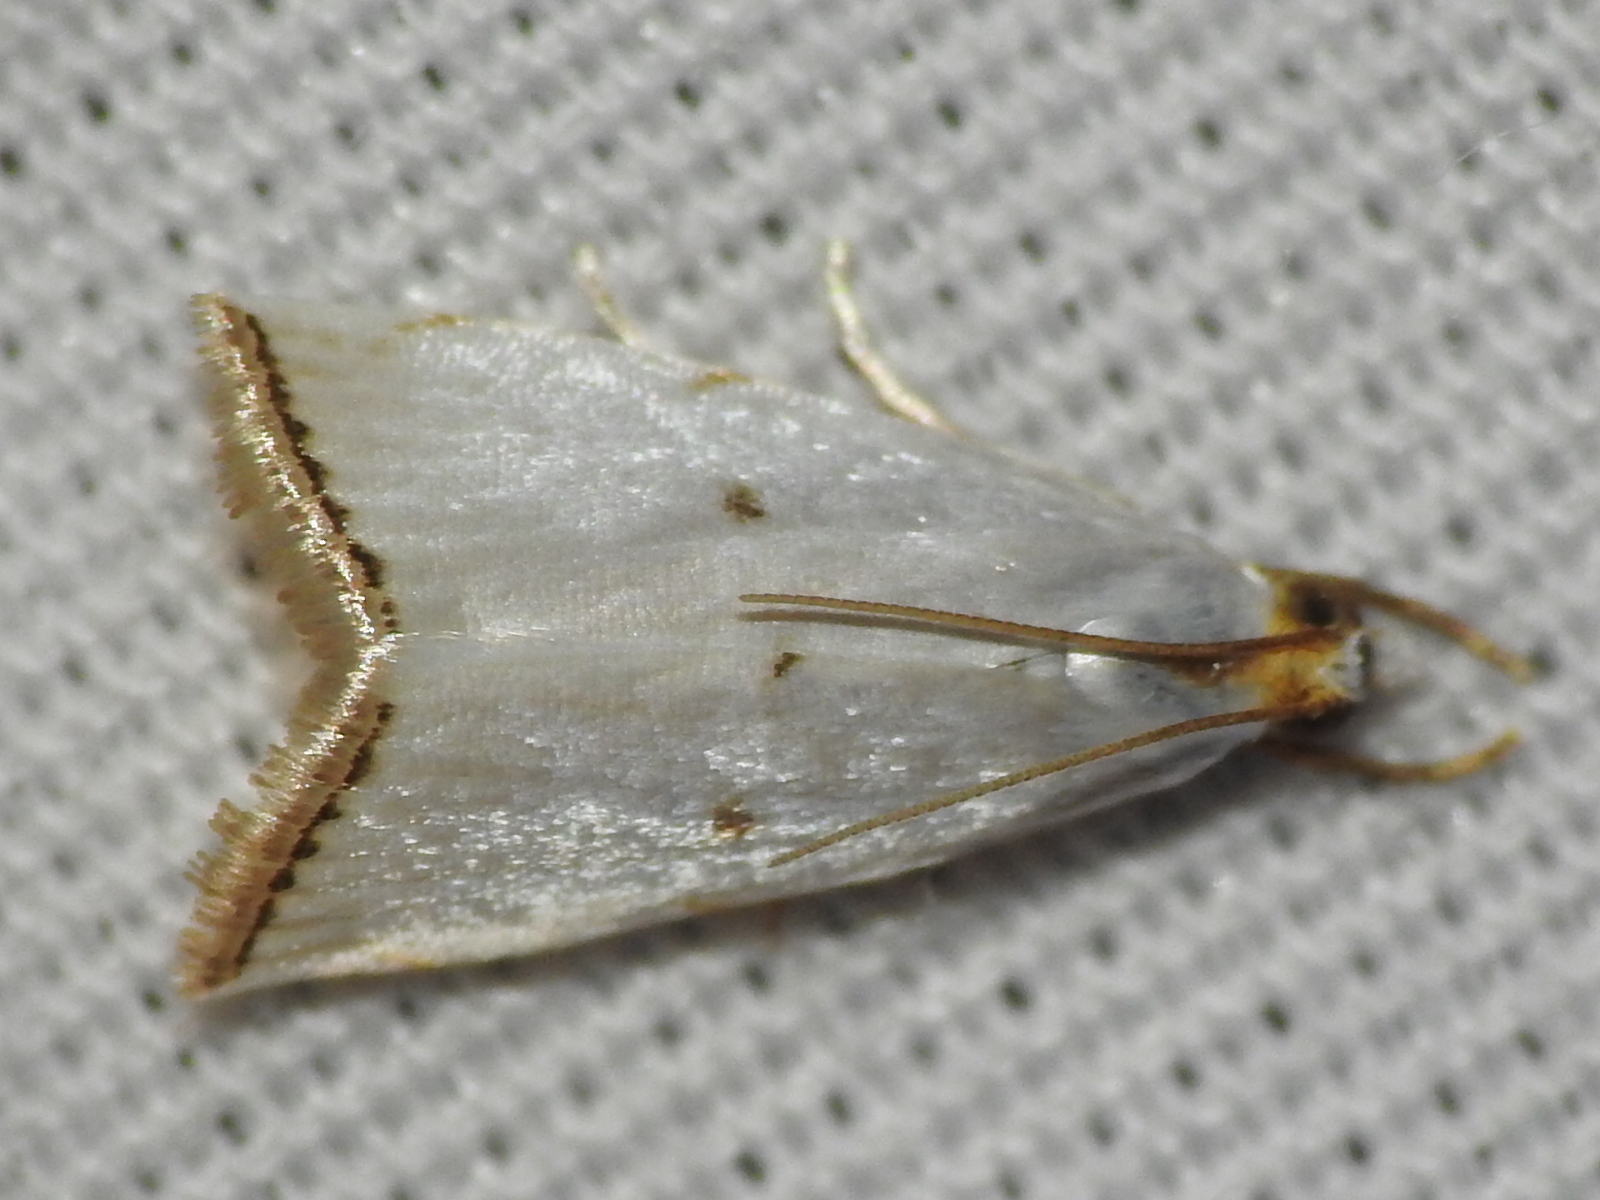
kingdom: Animalia
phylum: Arthropoda
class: Insecta
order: Lepidoptera
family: Crambidae
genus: Argyria
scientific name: Argyria pusillalis
